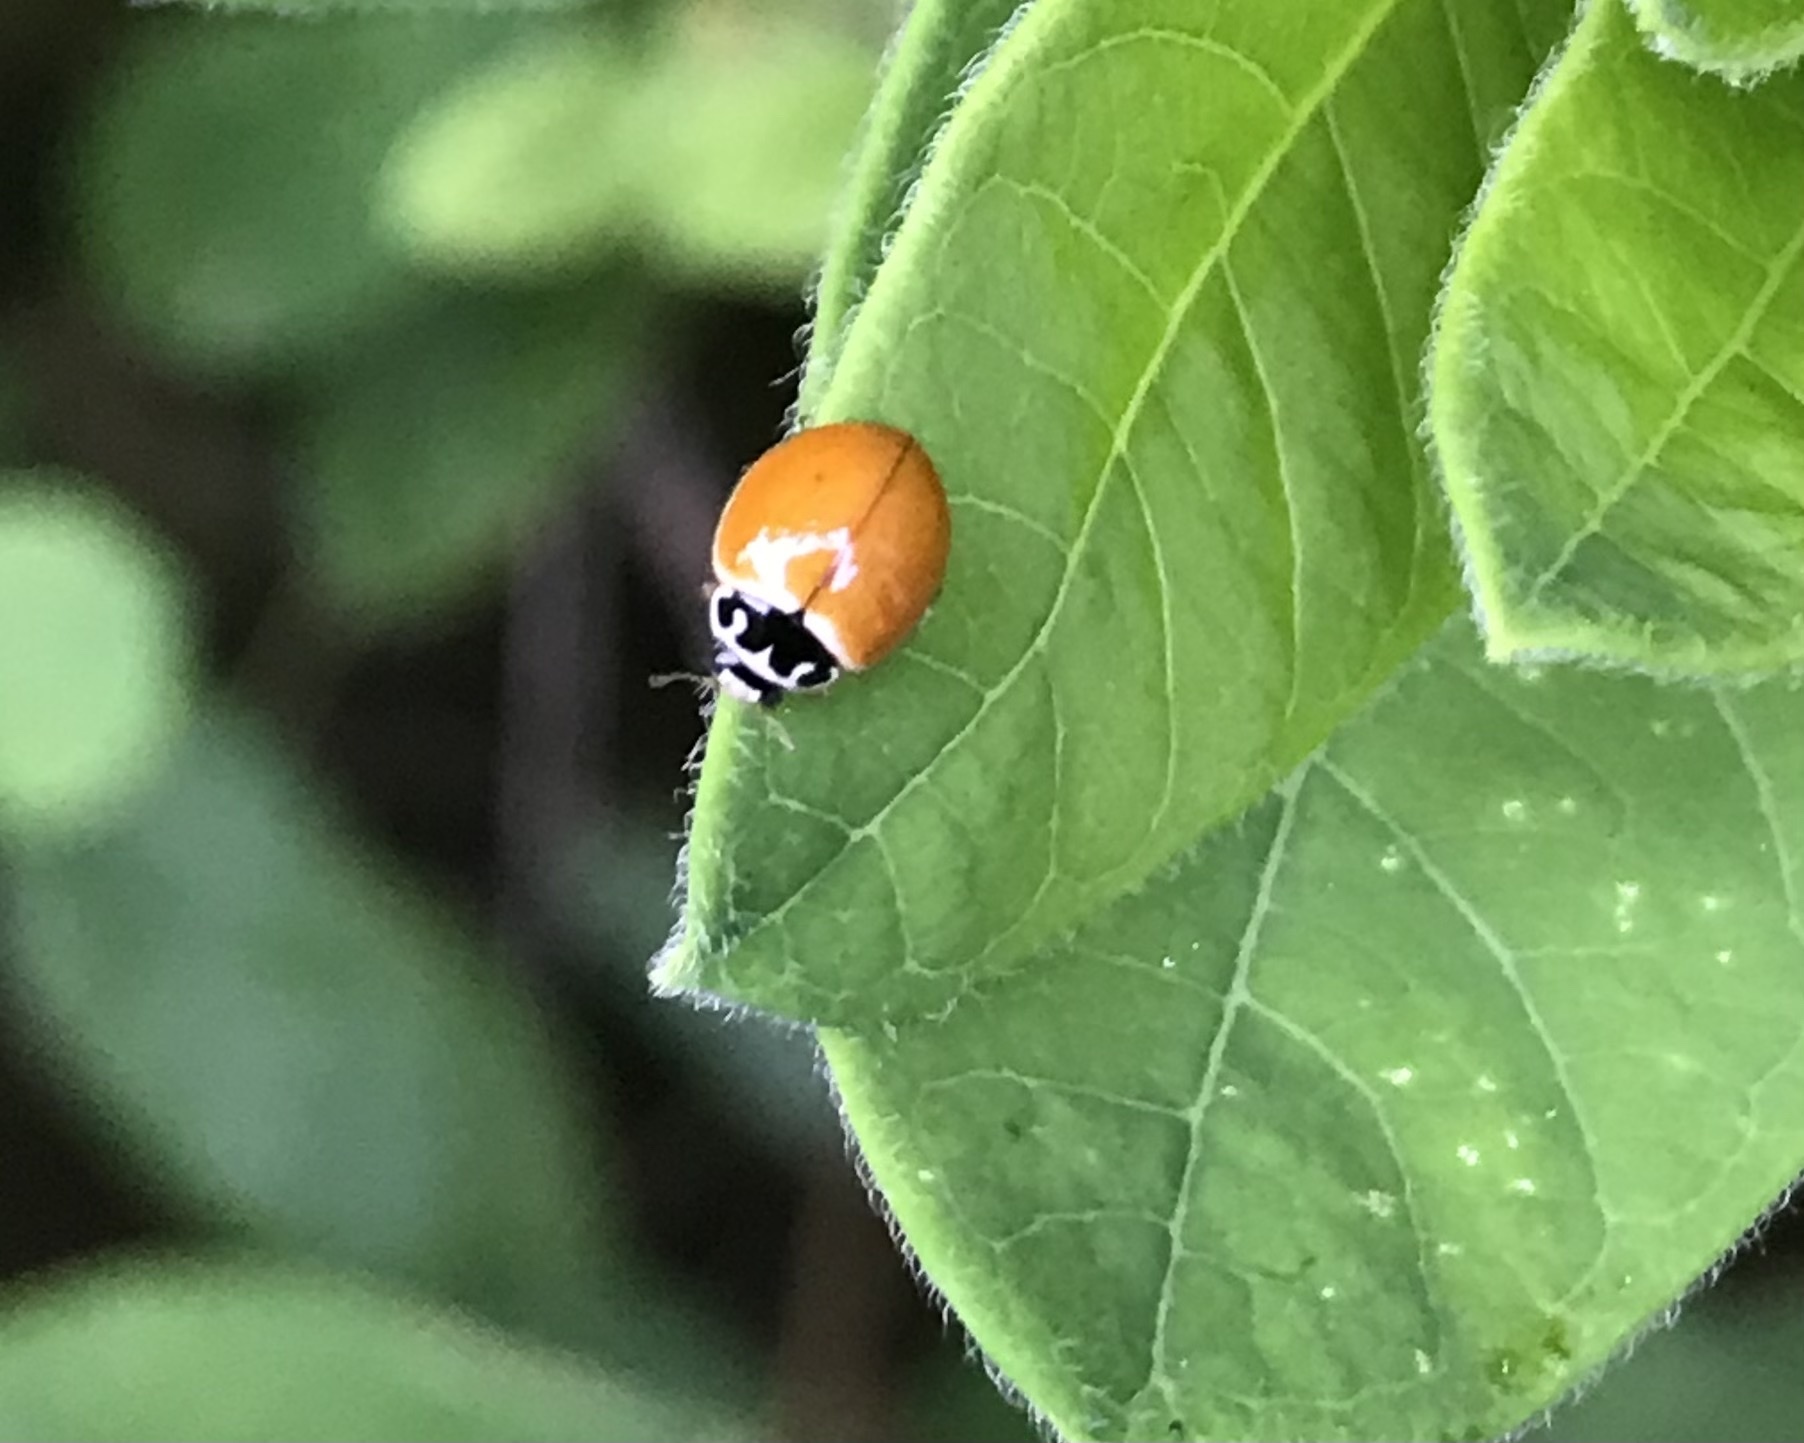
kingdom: Animalia
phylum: Arthropoda
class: Insecta
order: Coleoptera
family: Coccinellidae
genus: Cycloneda
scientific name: Cycloneda munda
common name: Polished lady beetle
